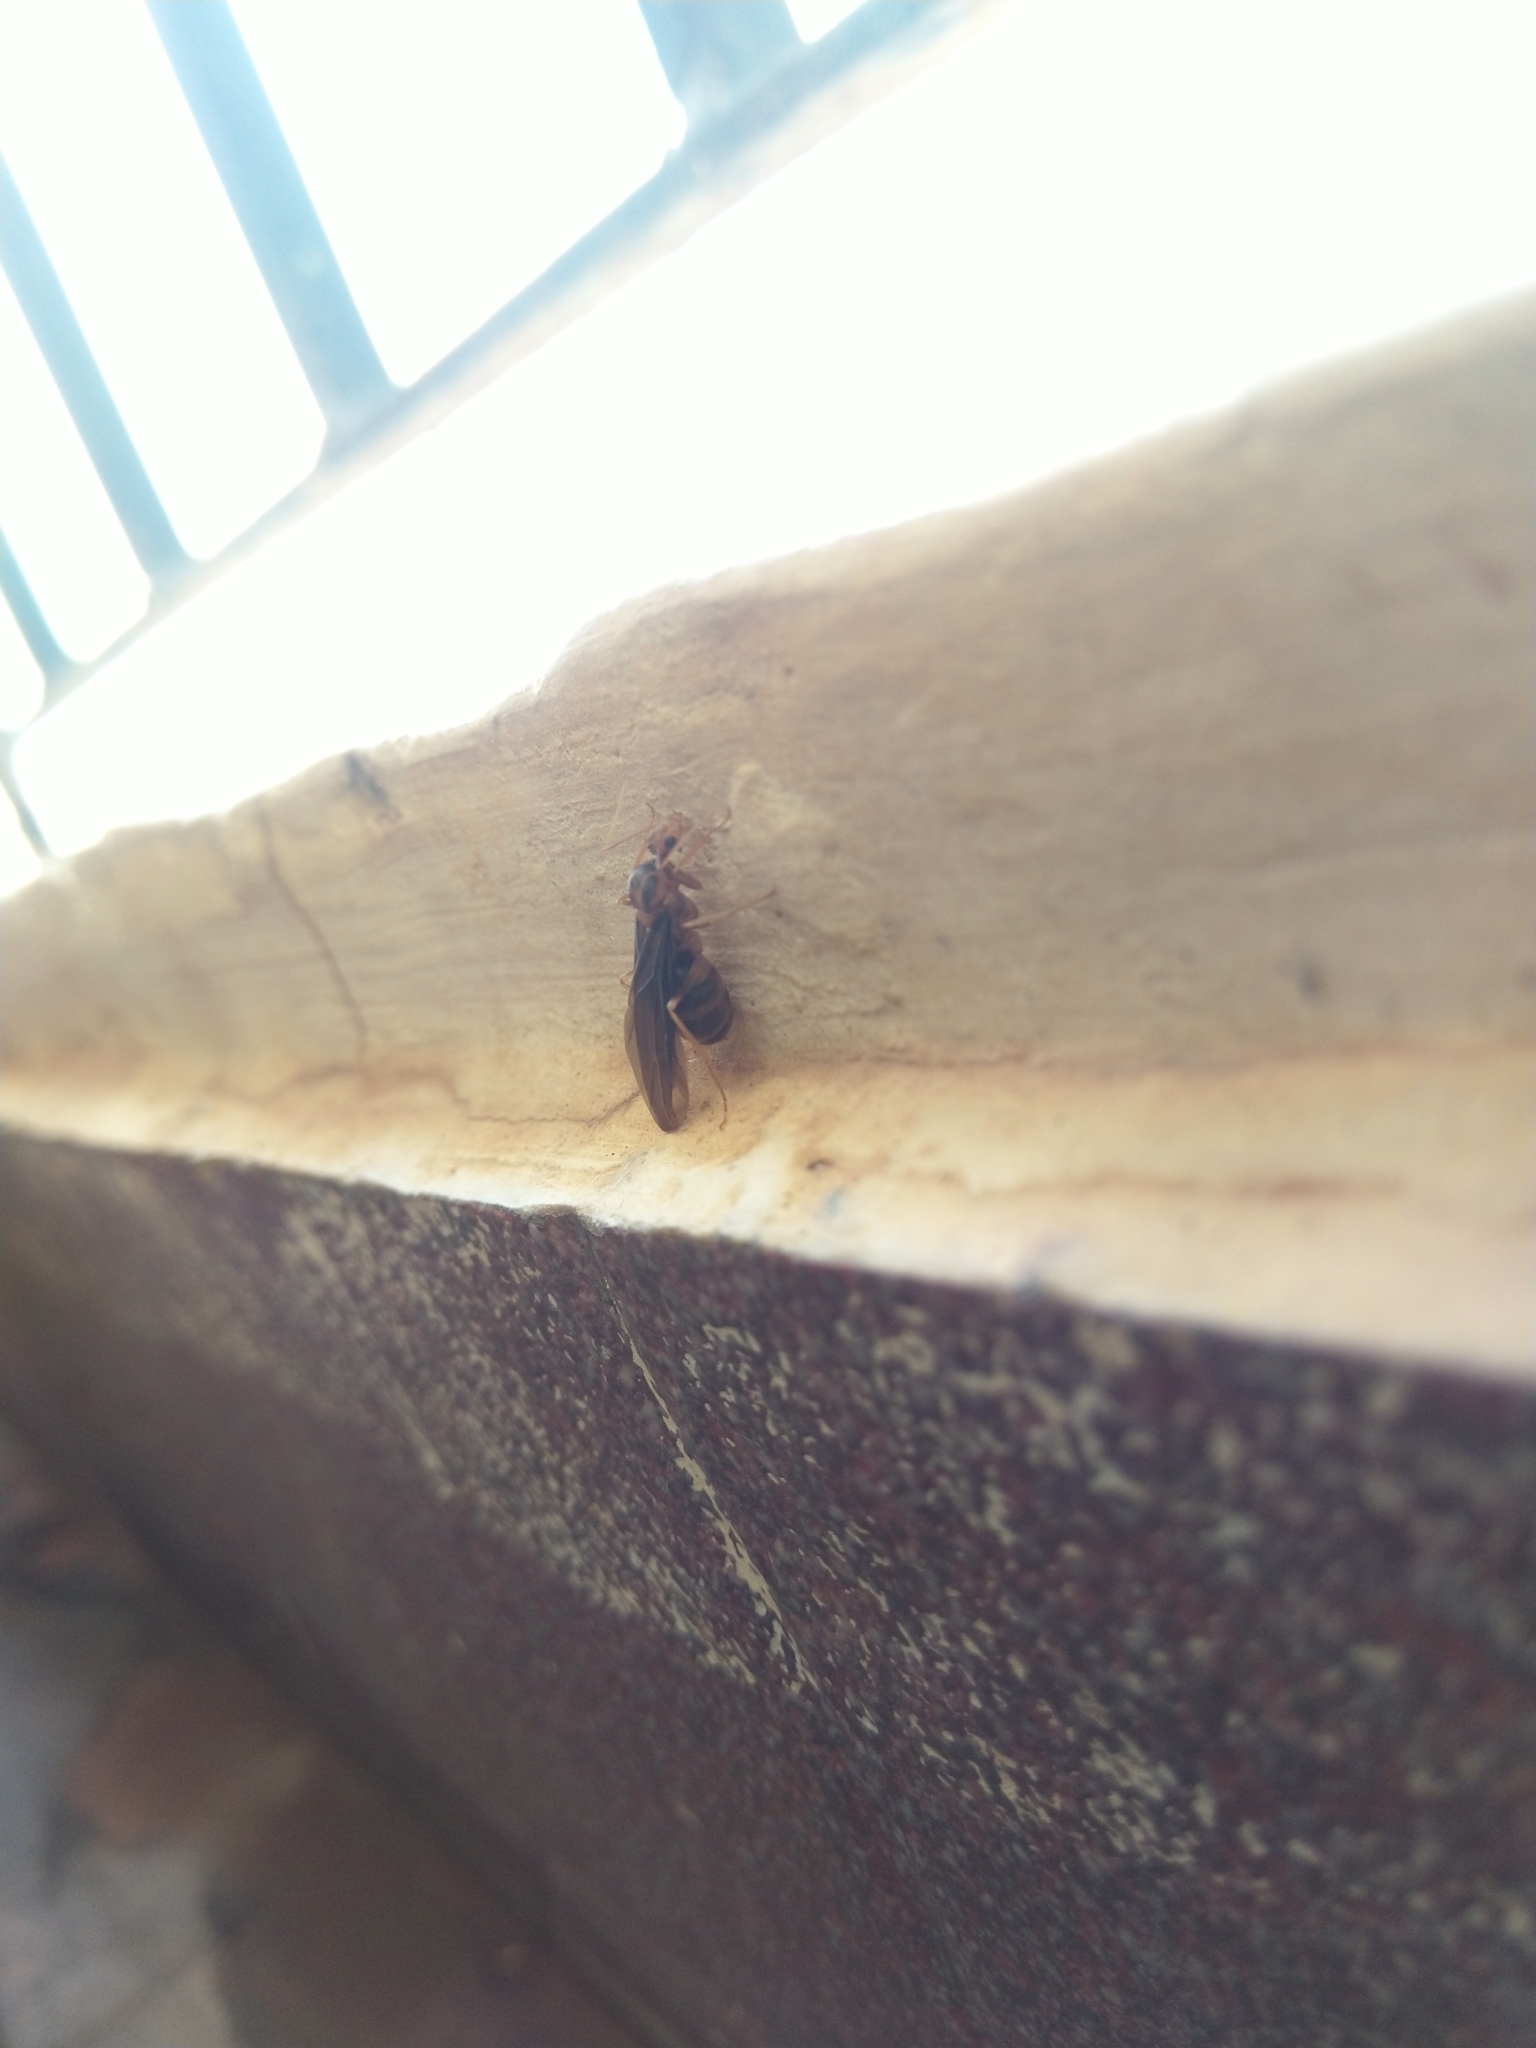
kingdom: Animalia
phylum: Arthropoda
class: Insecta
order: Hymenoptera
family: Formicidae
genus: Anoplolepis
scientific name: Anoplolepis gracilipes
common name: Ant
